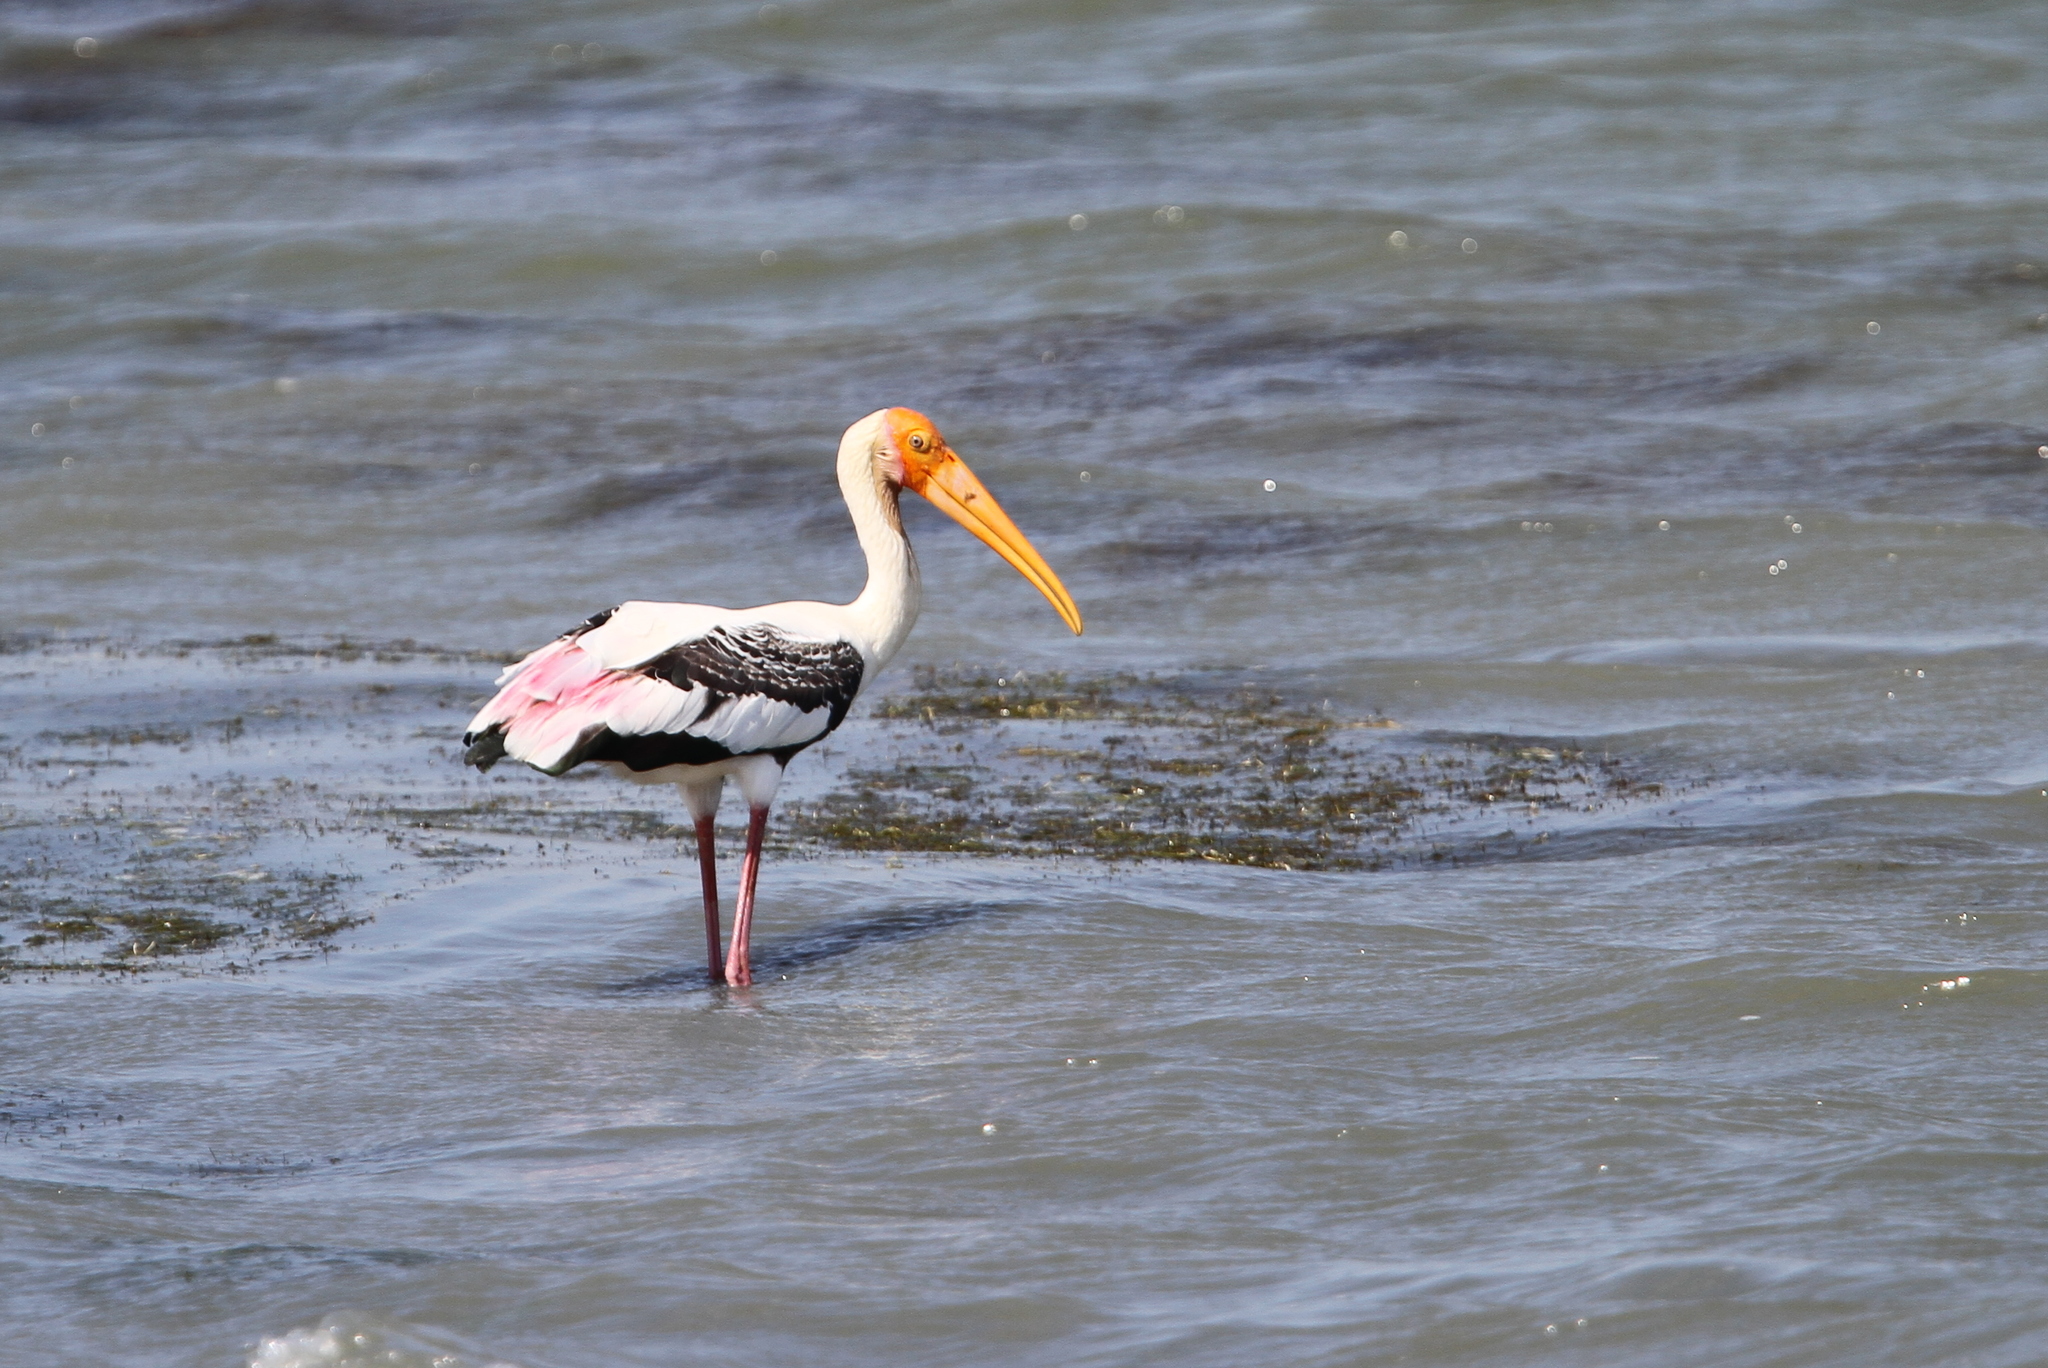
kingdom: Animalia
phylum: Chordata
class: Aves
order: Ciconiiformes
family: Ciconiidae
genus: Mycteria
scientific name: Mycteria leucocephala
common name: Painted stork
